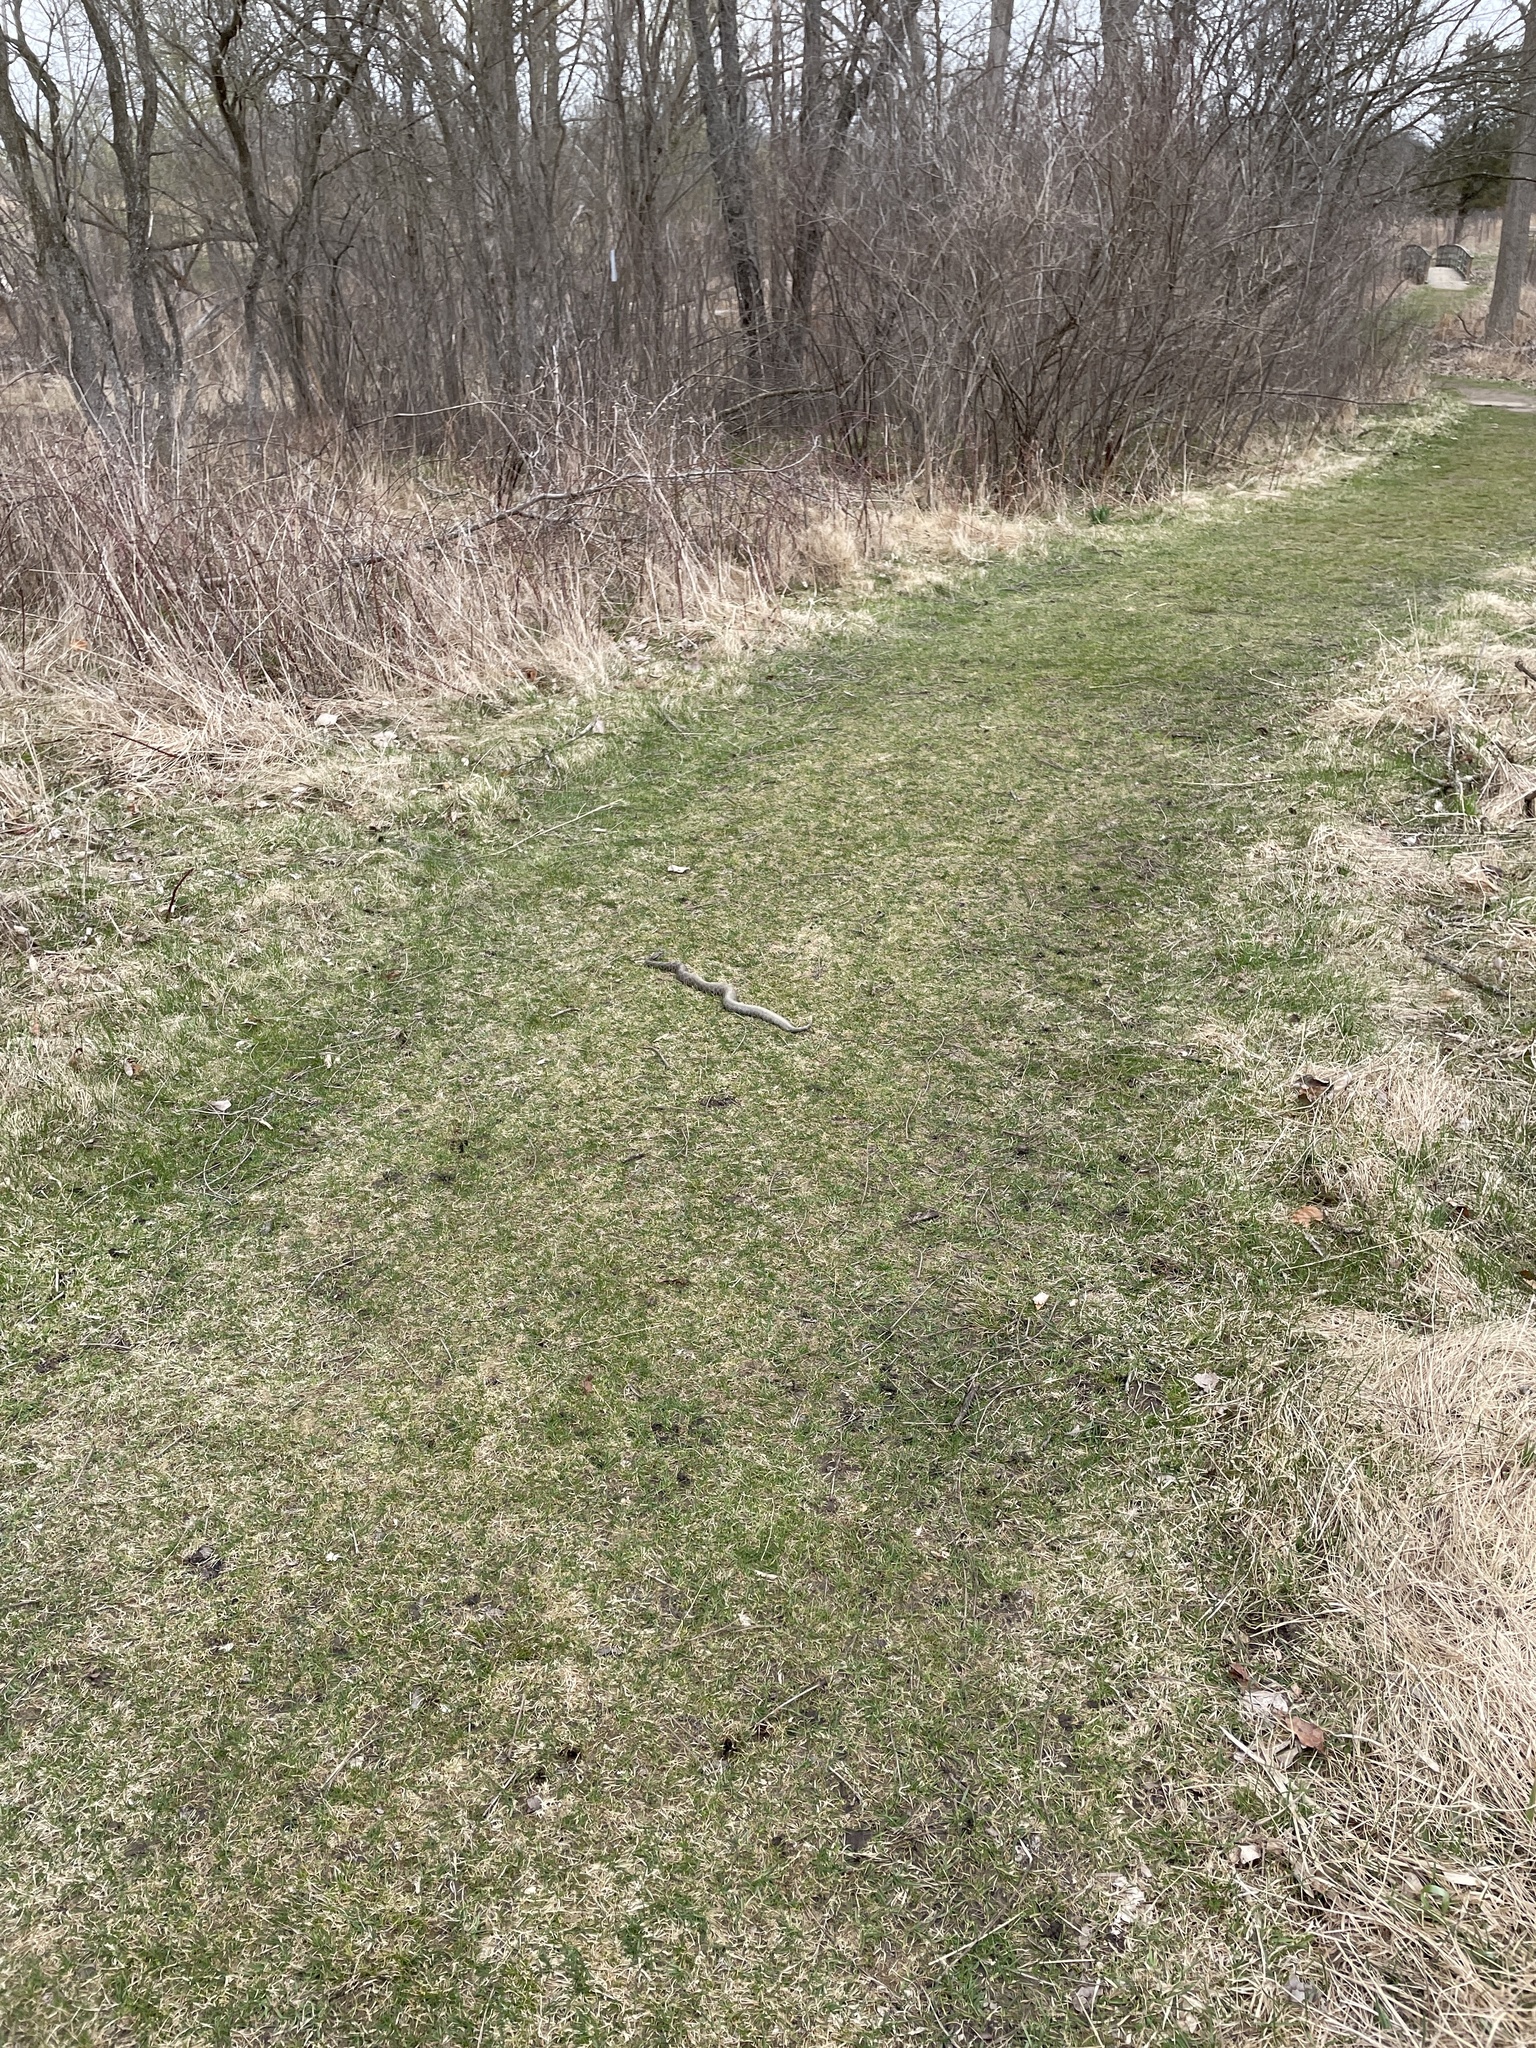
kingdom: Animalia
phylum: Chordata
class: Squamata
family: Viperidae
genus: Sistrurus
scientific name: Sistrurus catenatus
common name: Massasauga
